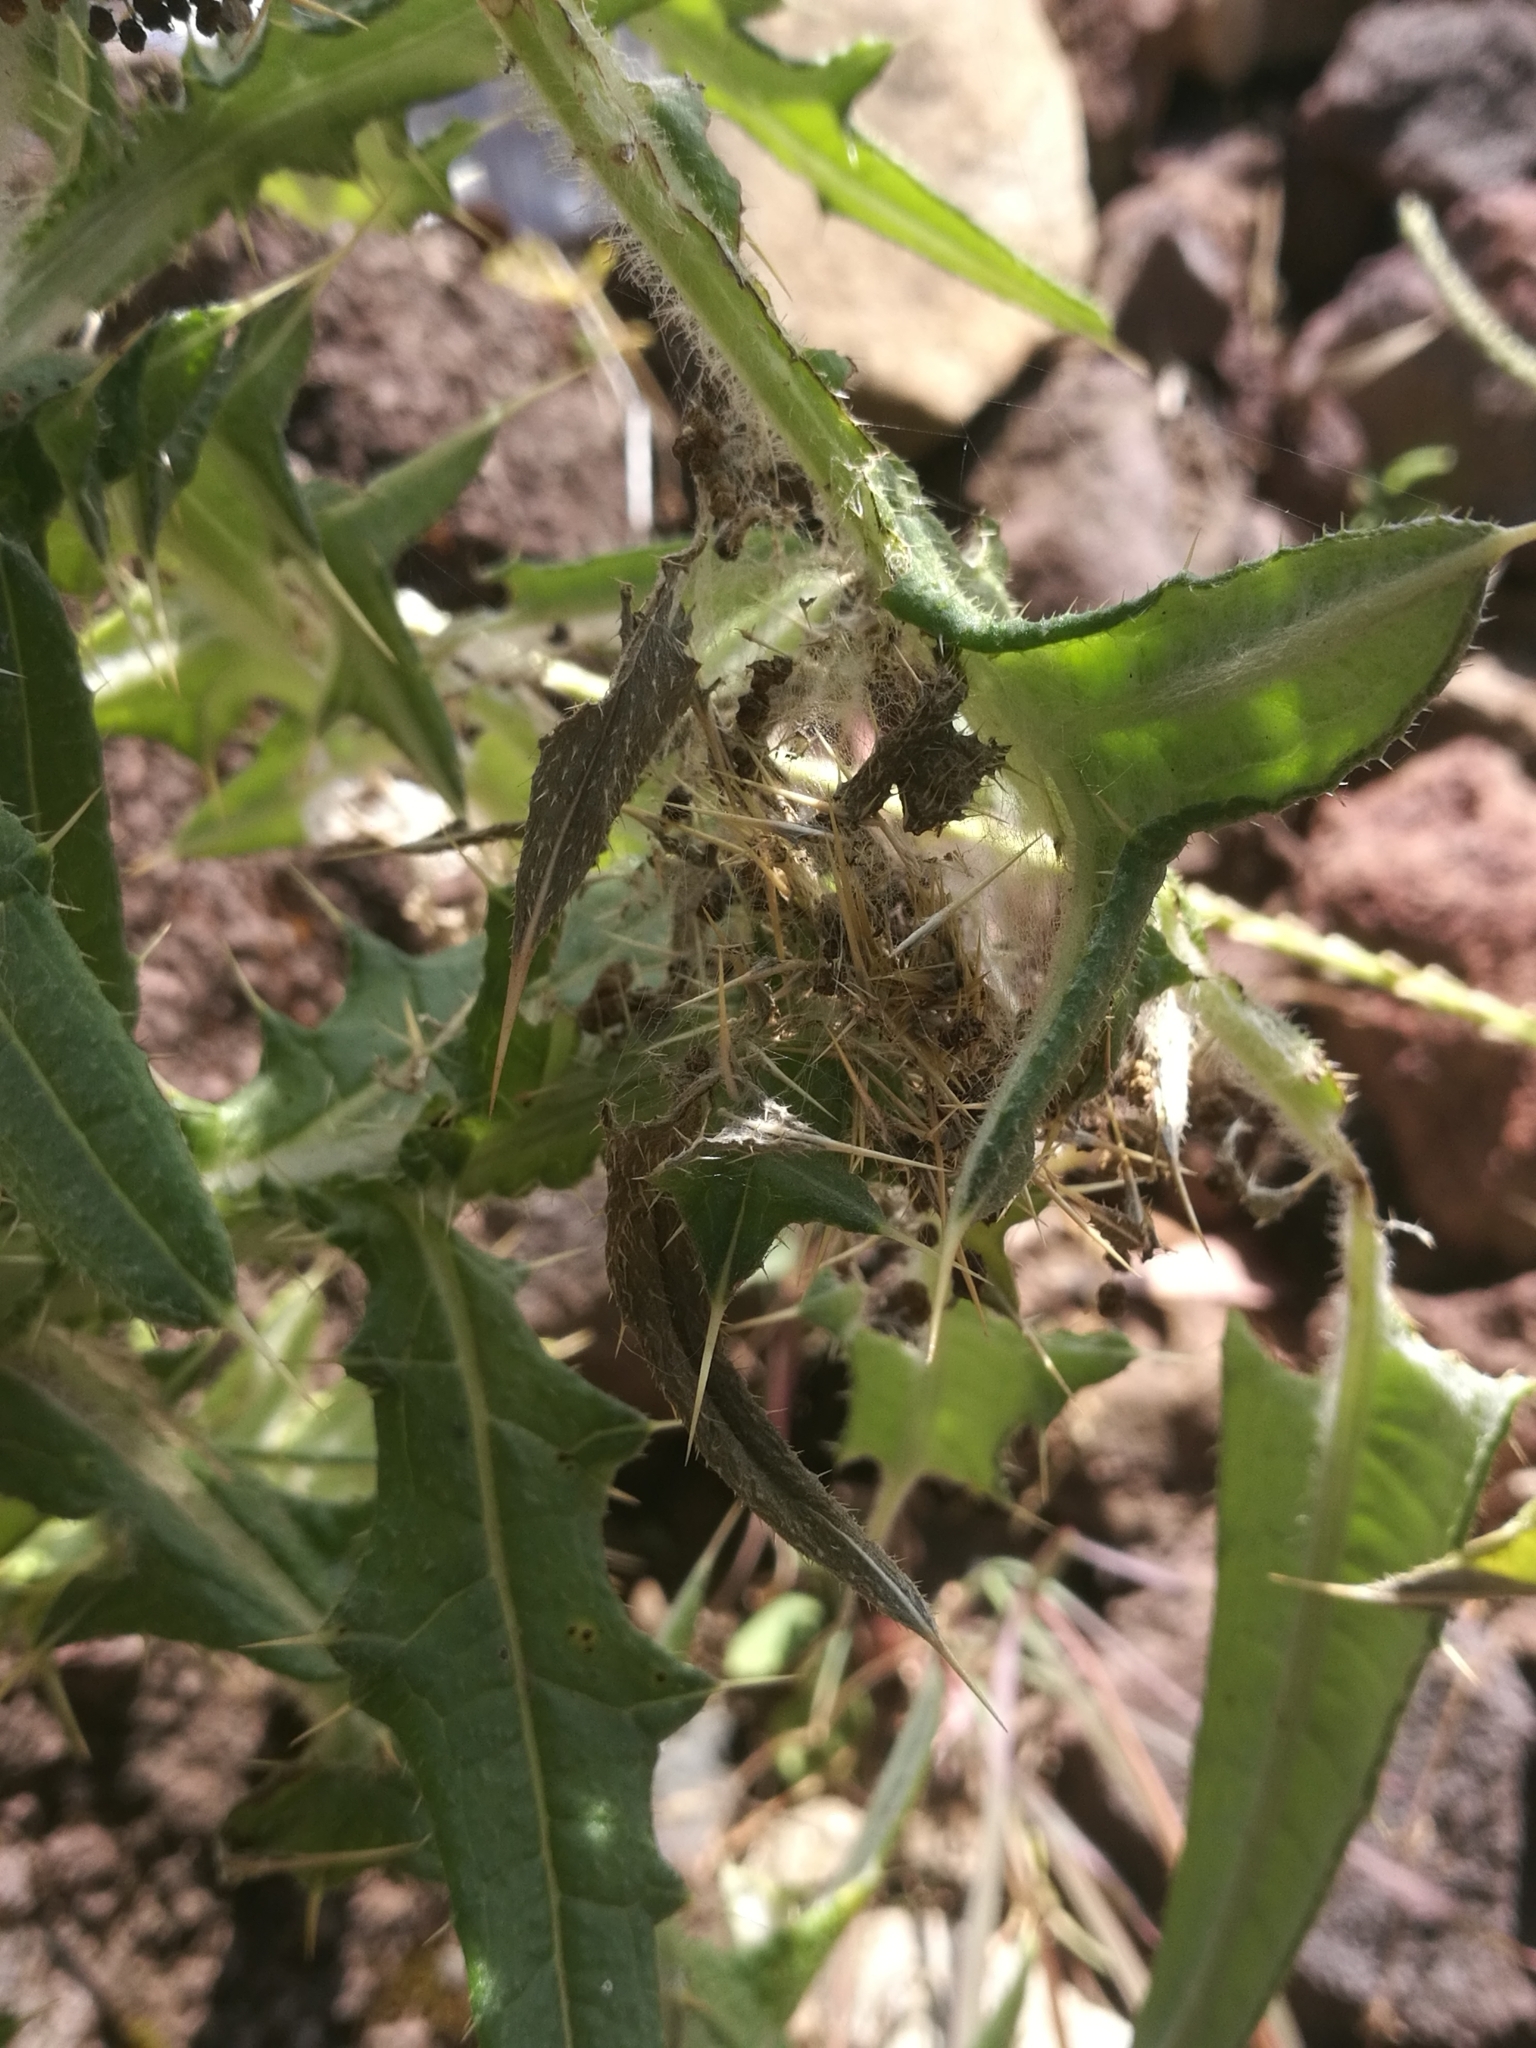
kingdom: Animalia
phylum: Arthropoda
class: Insecta
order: Lepidoptera
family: Nymphalidae
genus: Vanessa
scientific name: Vanessa cardui
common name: Painted lady
